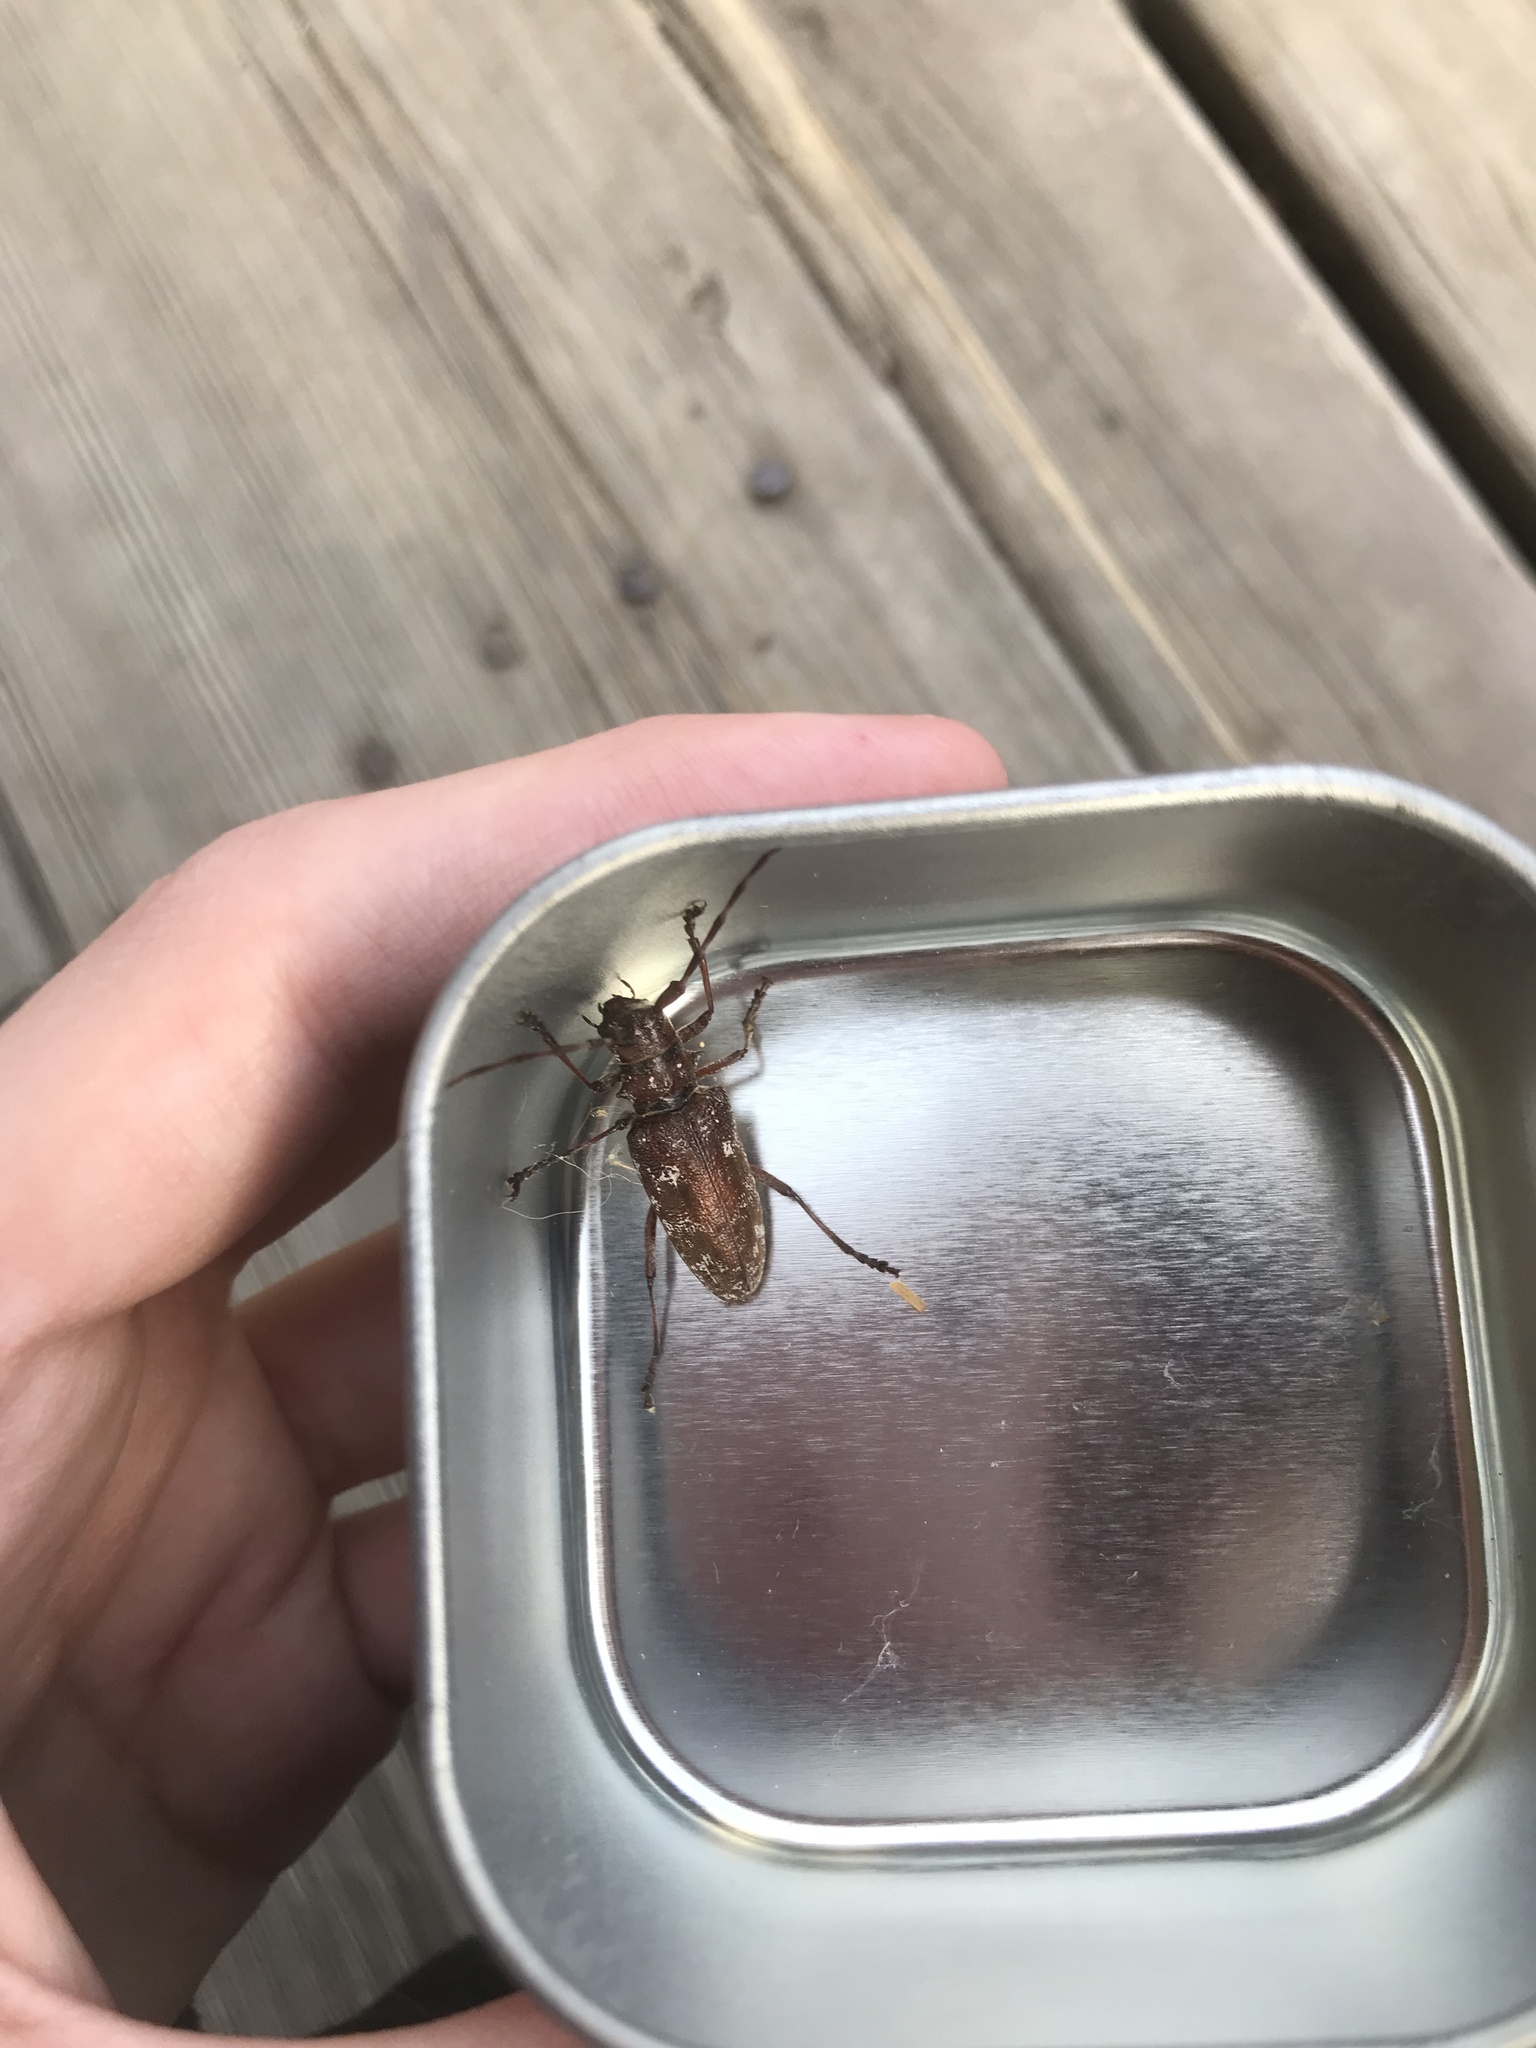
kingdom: Animalia
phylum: Arthropoda
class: Insecta
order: Coleoptera
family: Cerambycidae
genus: Monochamus
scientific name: Monochamus obtusus
